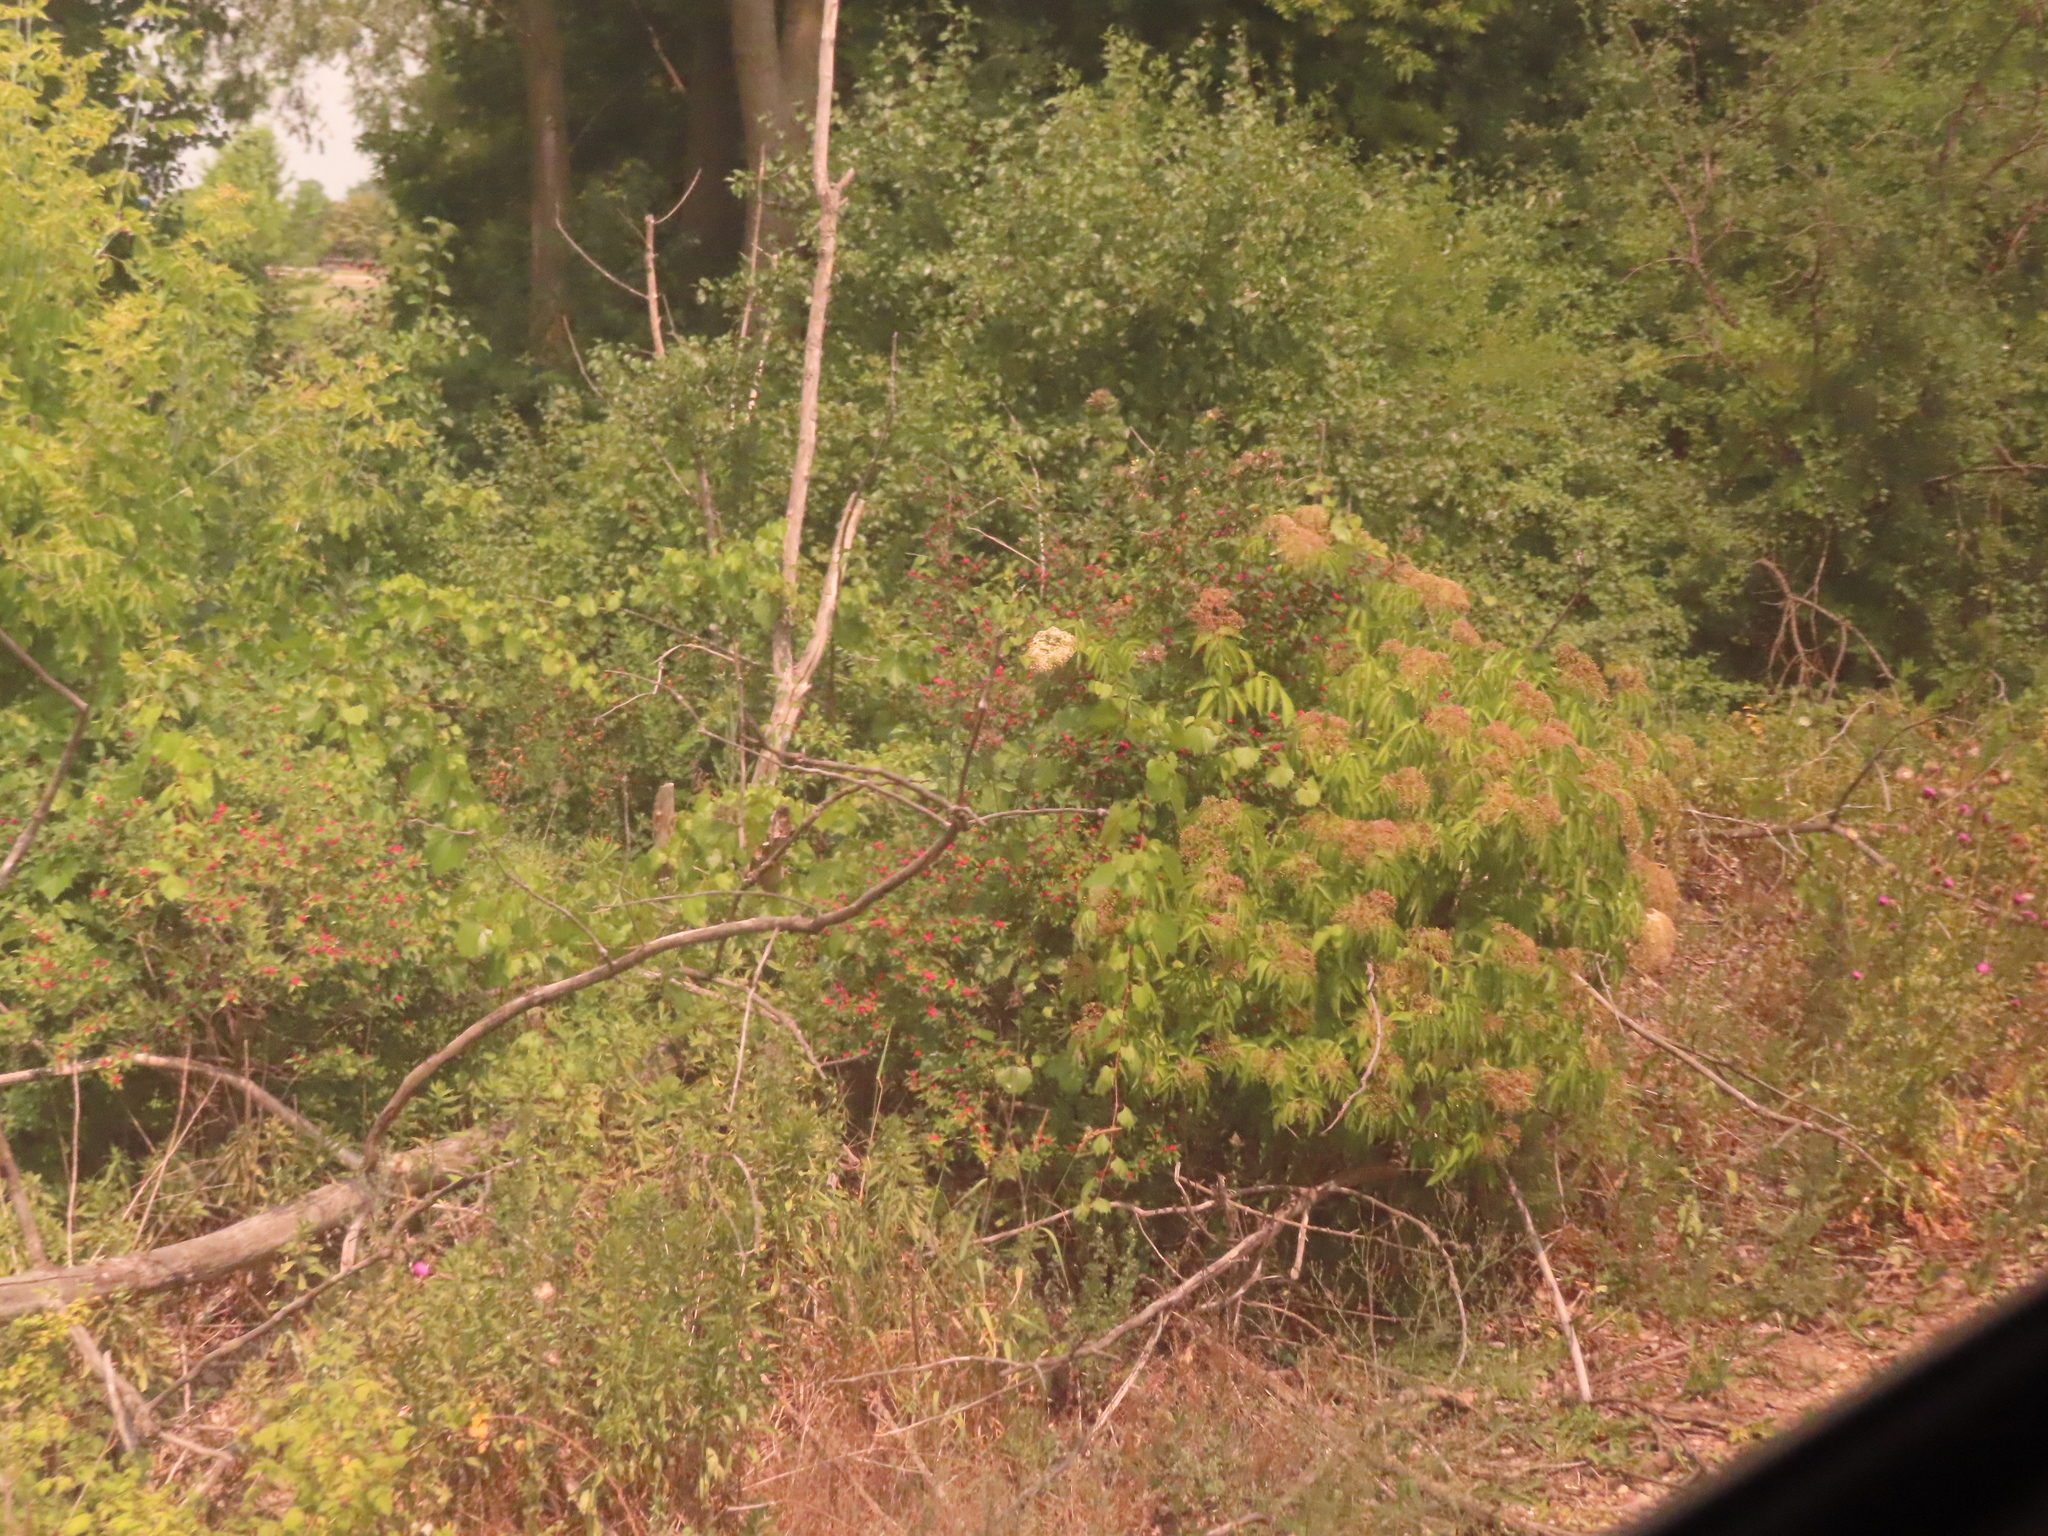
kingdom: Plantae
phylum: Tracheophyta
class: Magnoliopsida
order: Sapindales
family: Sapindaceae
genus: Acer
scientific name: Acer negundo
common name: Ashleaf maple
